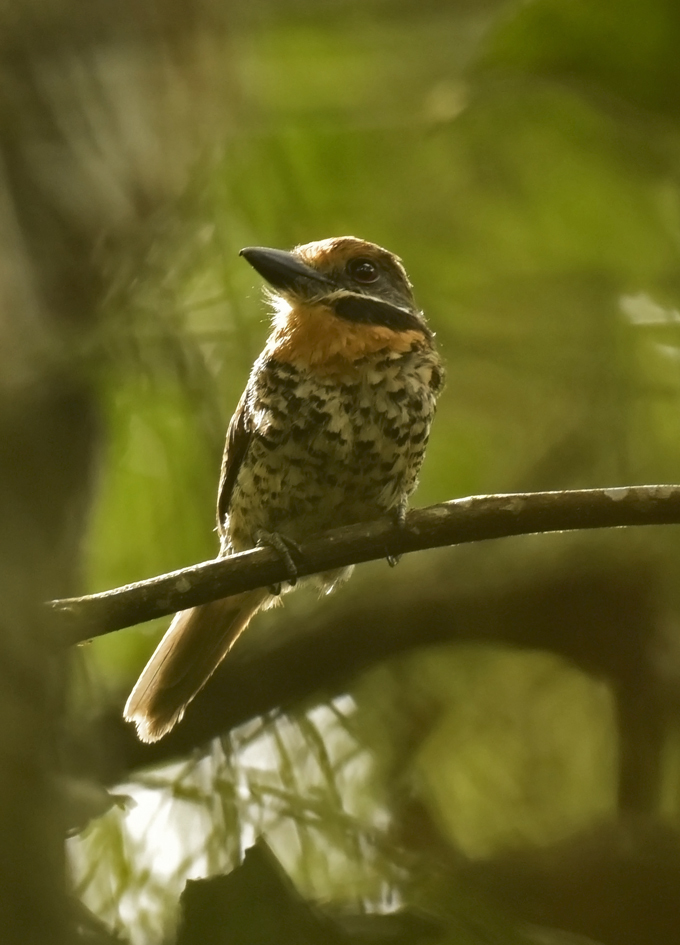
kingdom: Animalia
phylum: Chordata
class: Aves
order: Piciformes
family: Bucconidae
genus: Bucco
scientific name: Bucco tamatia
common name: Spotted puffbird
